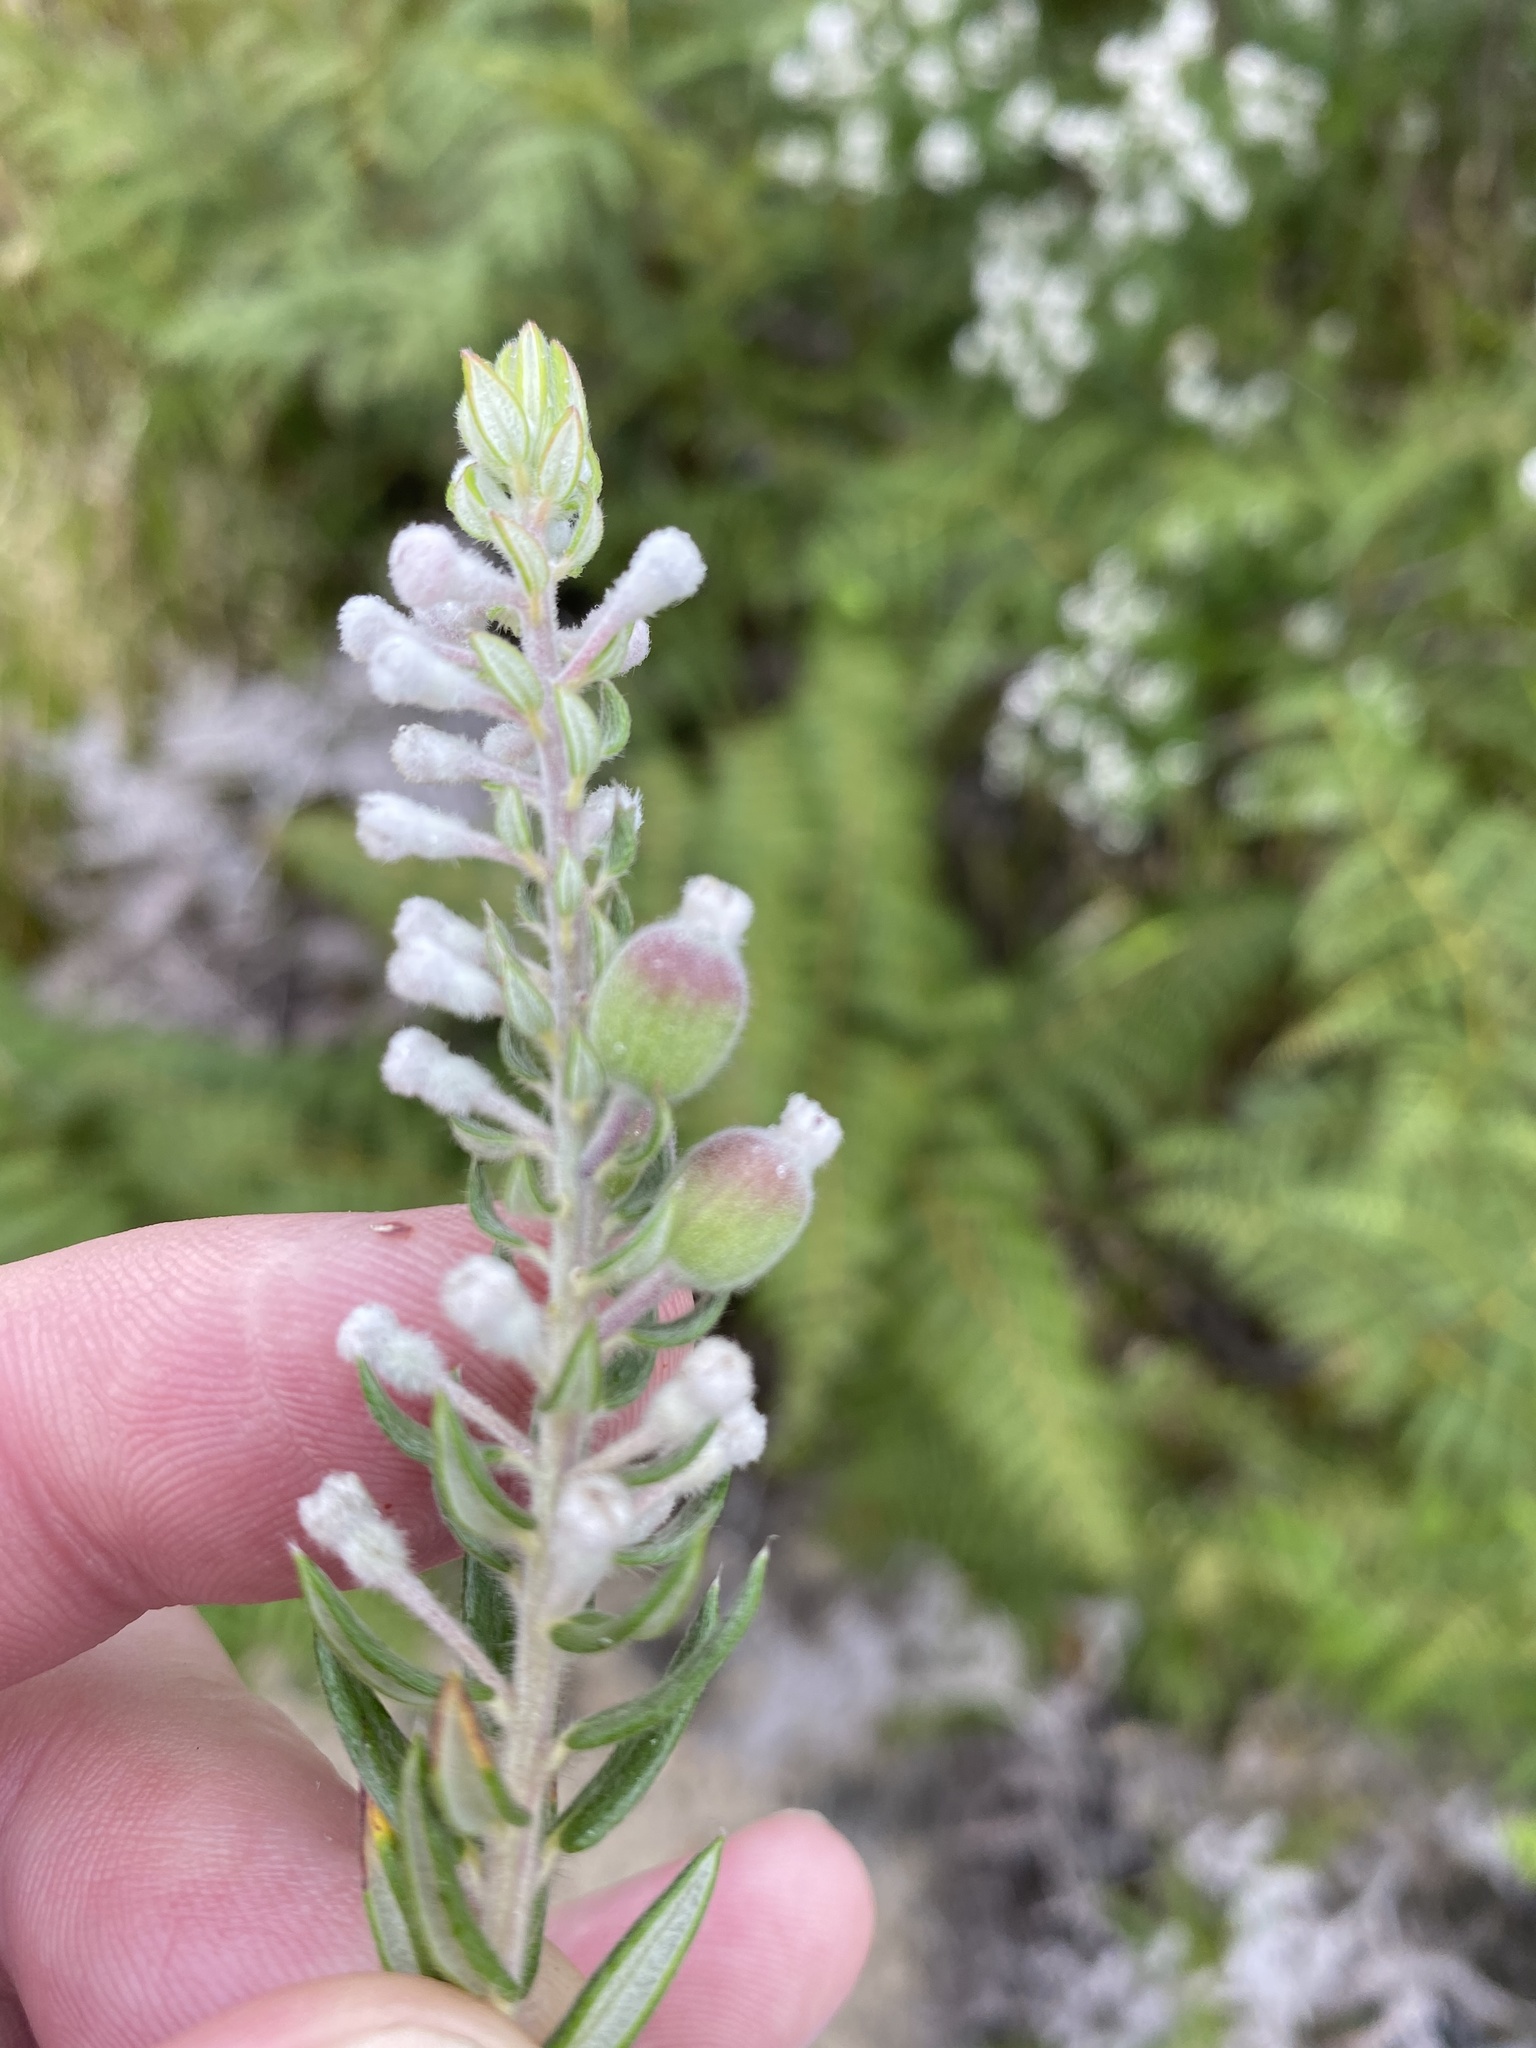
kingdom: Plantae
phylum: Tracheophyta
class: Magnoliopsida
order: Rosales
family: Rhamnaceae
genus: Phylica
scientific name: Phylica pinea
